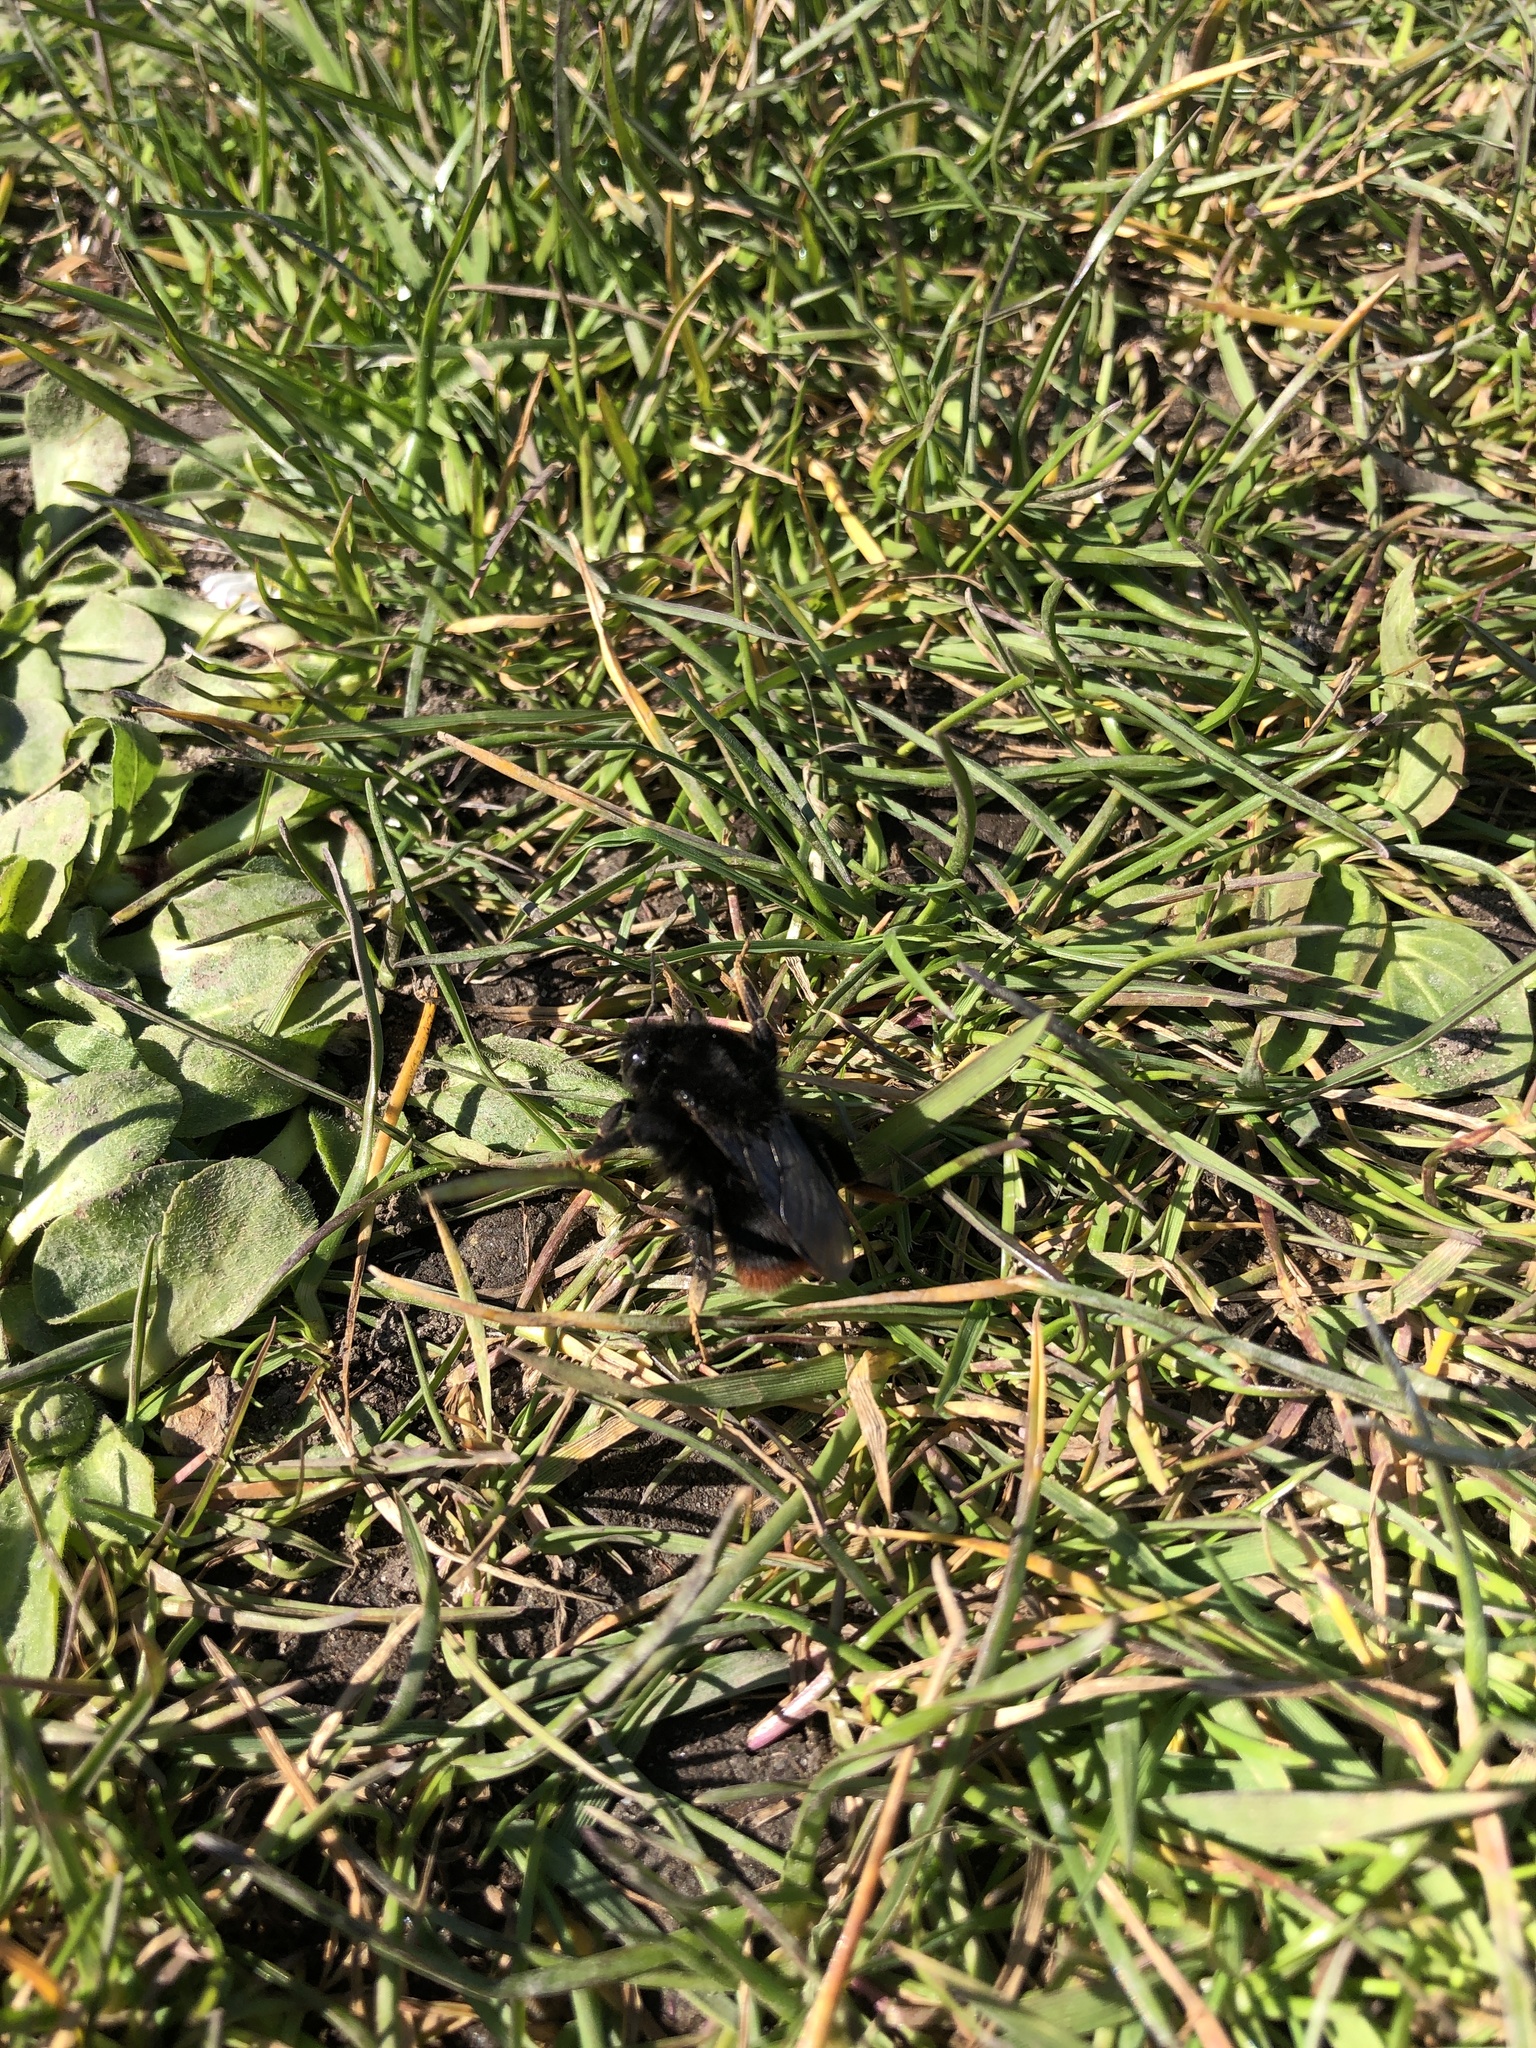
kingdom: Animalia
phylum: Arthropoda
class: Insecta
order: Hymenoptera
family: Apidae
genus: Bombus
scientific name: Bombus lapidarius
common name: Large red-tailed humble-bee
